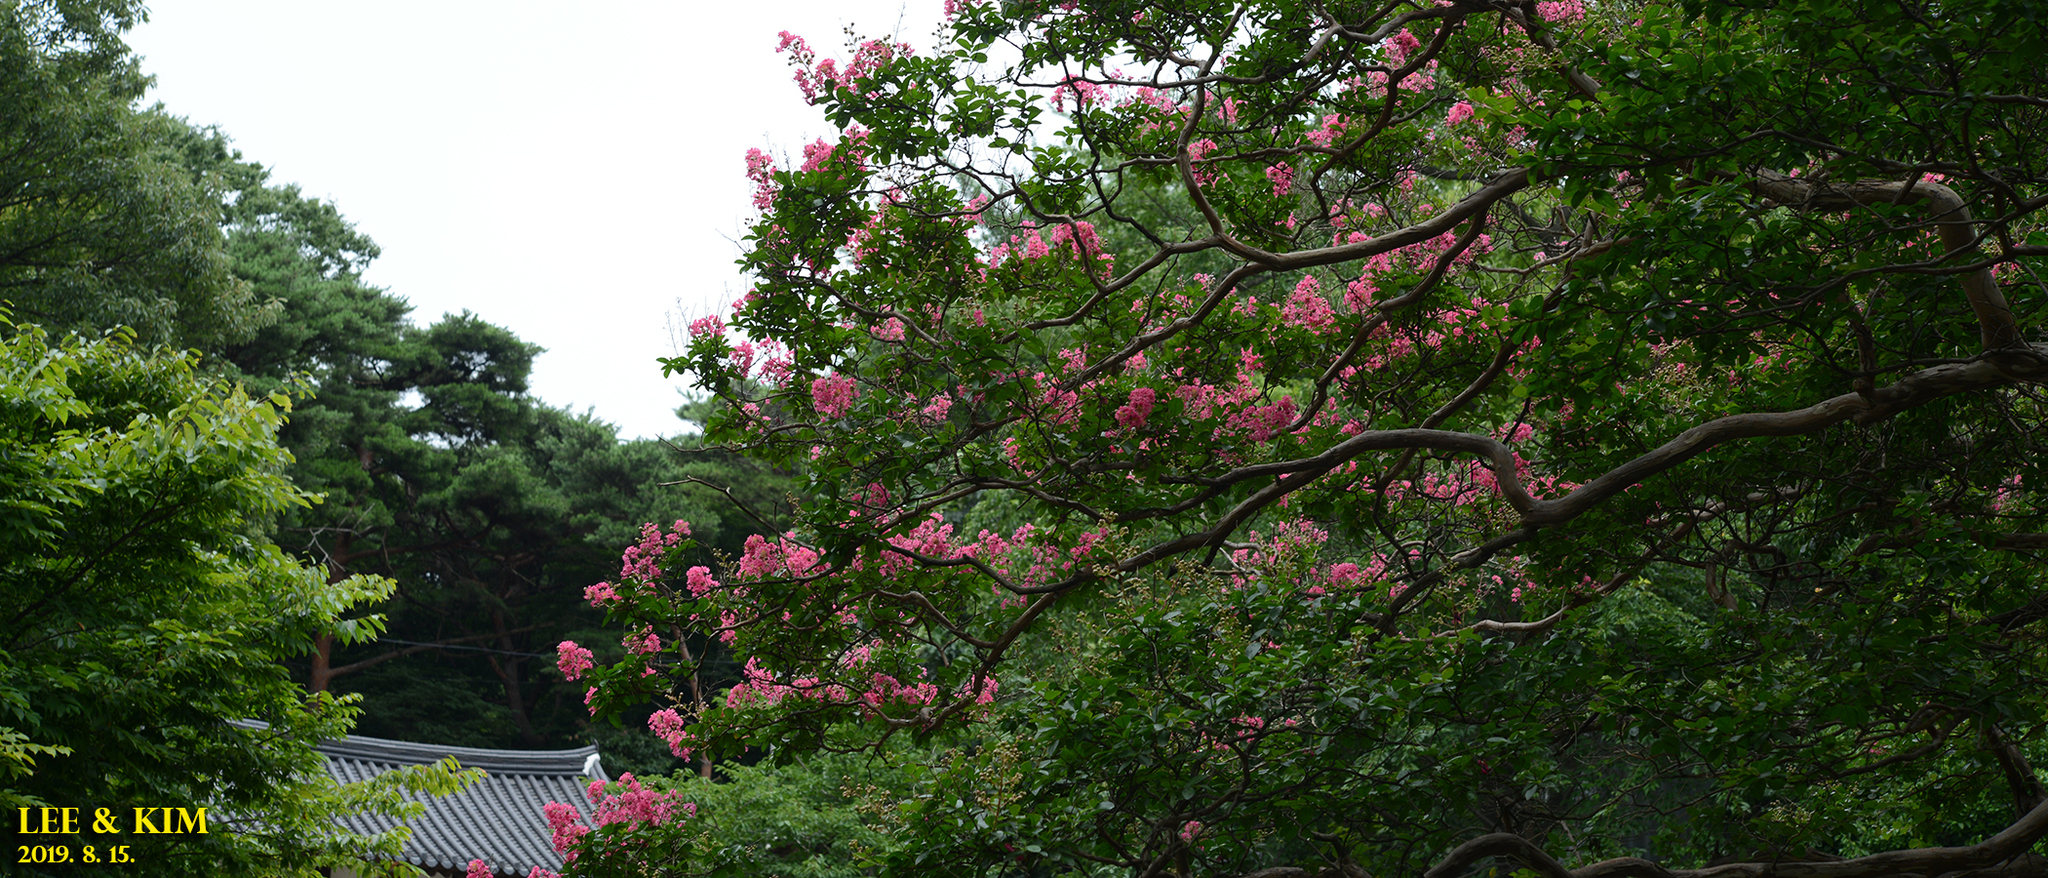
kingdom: Plantae
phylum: Tracheophyta
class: Magnoliopsida
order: Myrtales
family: Lythraceae
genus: Lagerstroemia
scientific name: Lagerstroemia indica
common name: Crape-myrtle
